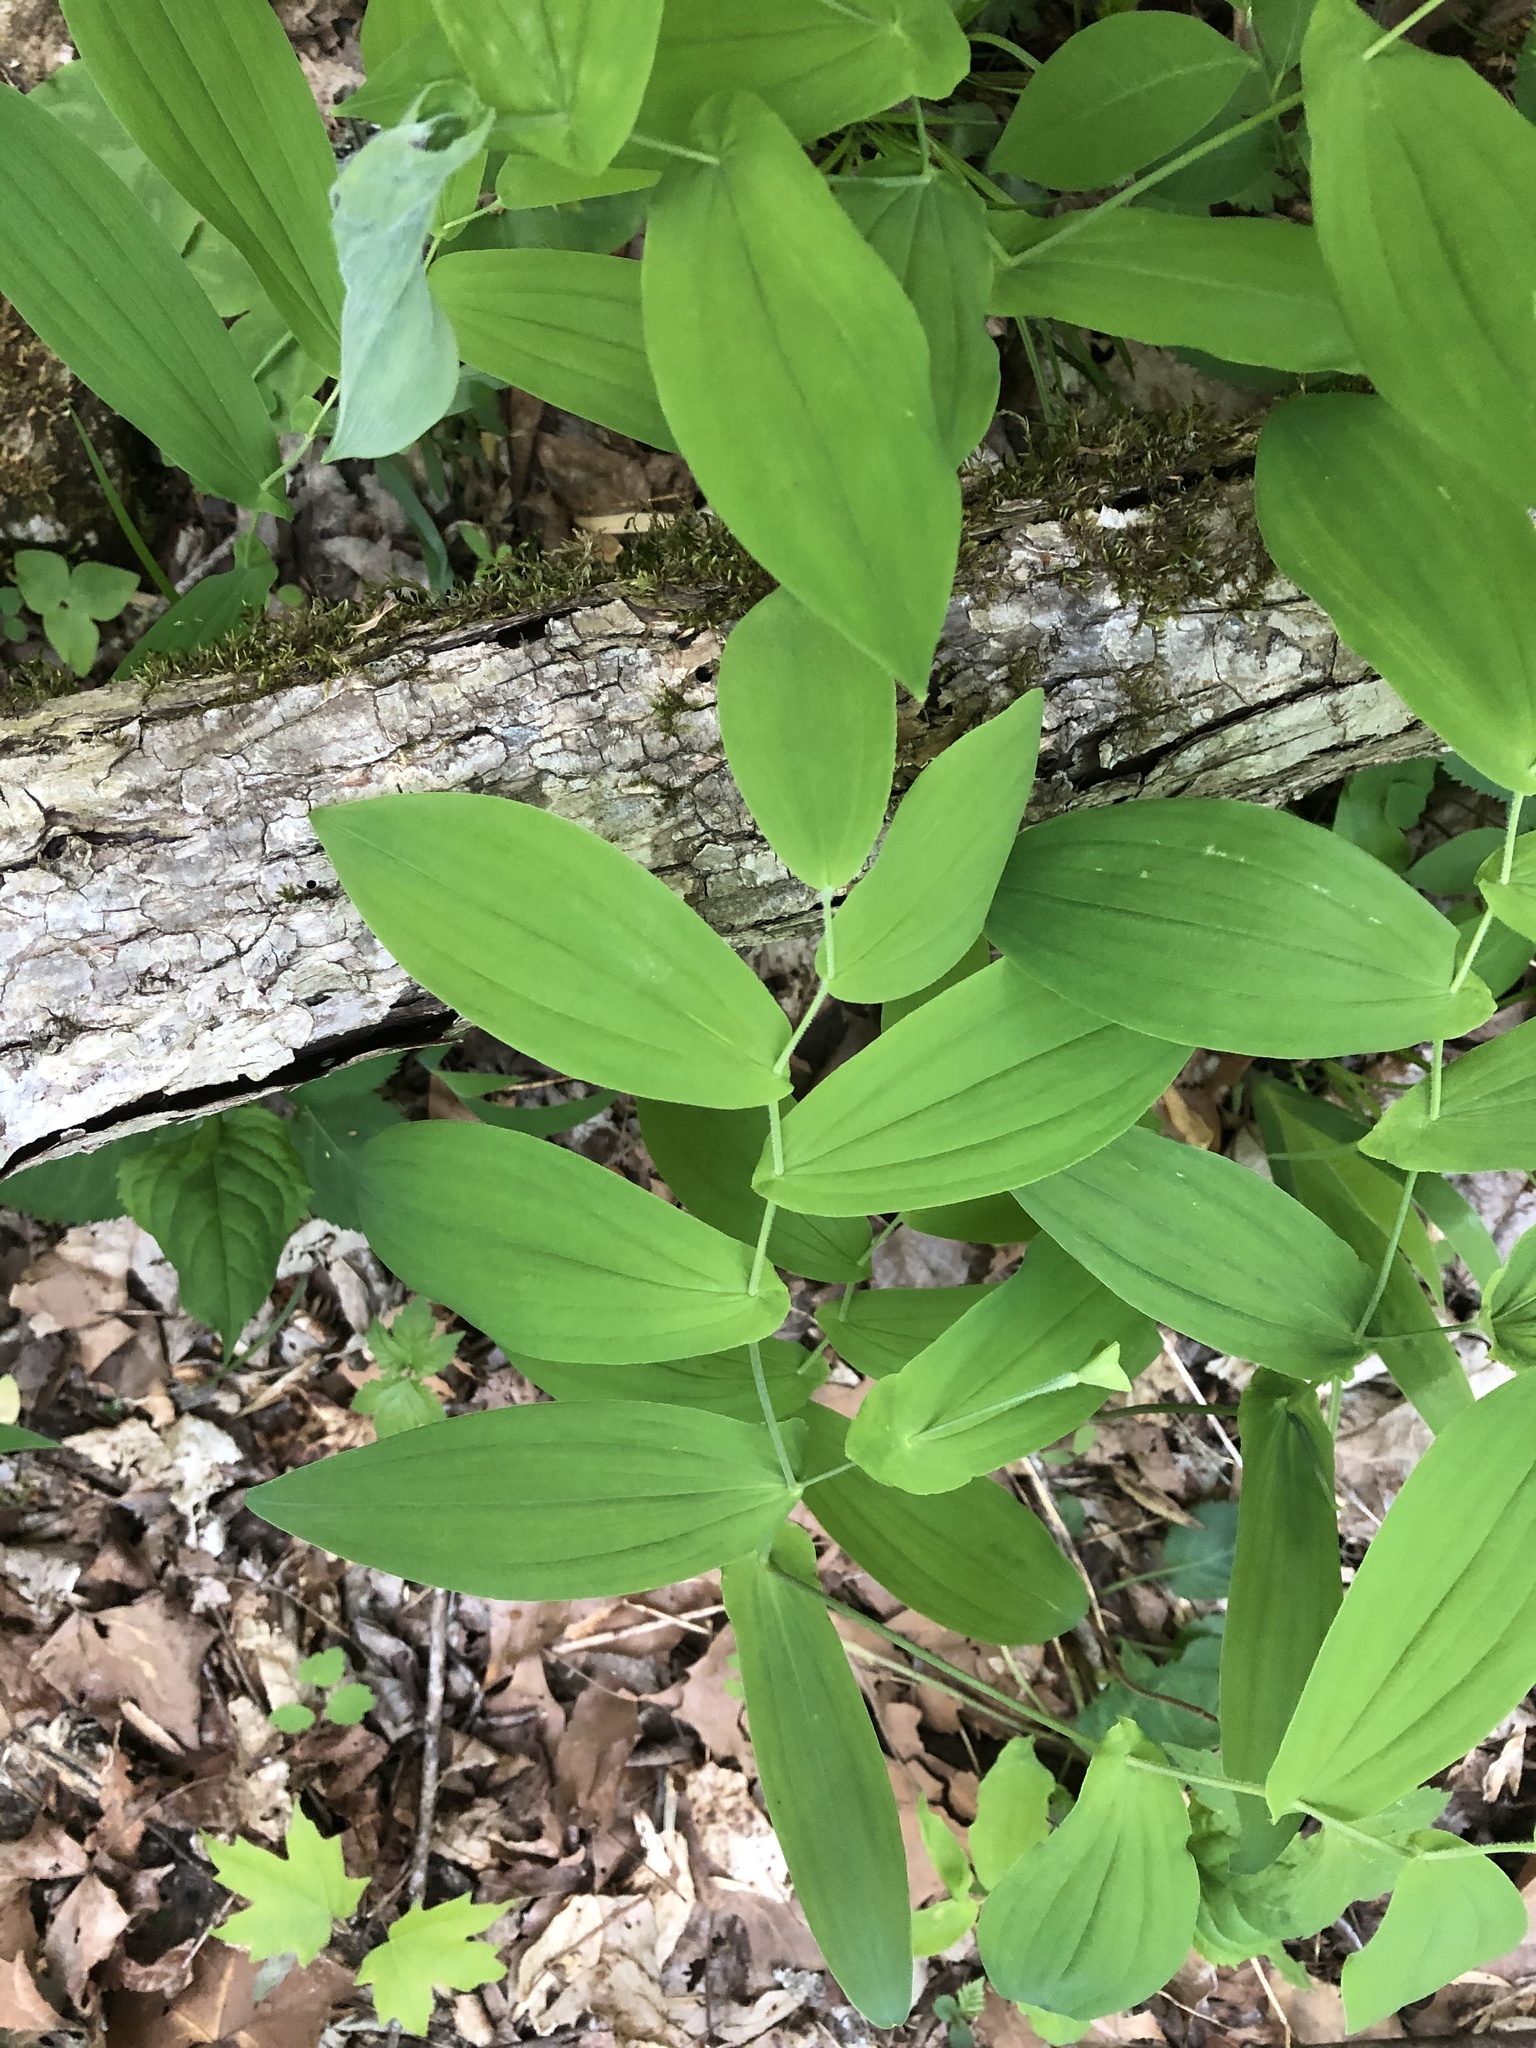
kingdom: Plantae
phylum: Tracheophyta
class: Liliopsida
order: Liliales
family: Colchicaceae
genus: Uvularia
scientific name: Uvularia grandiflora
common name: Bellwort
